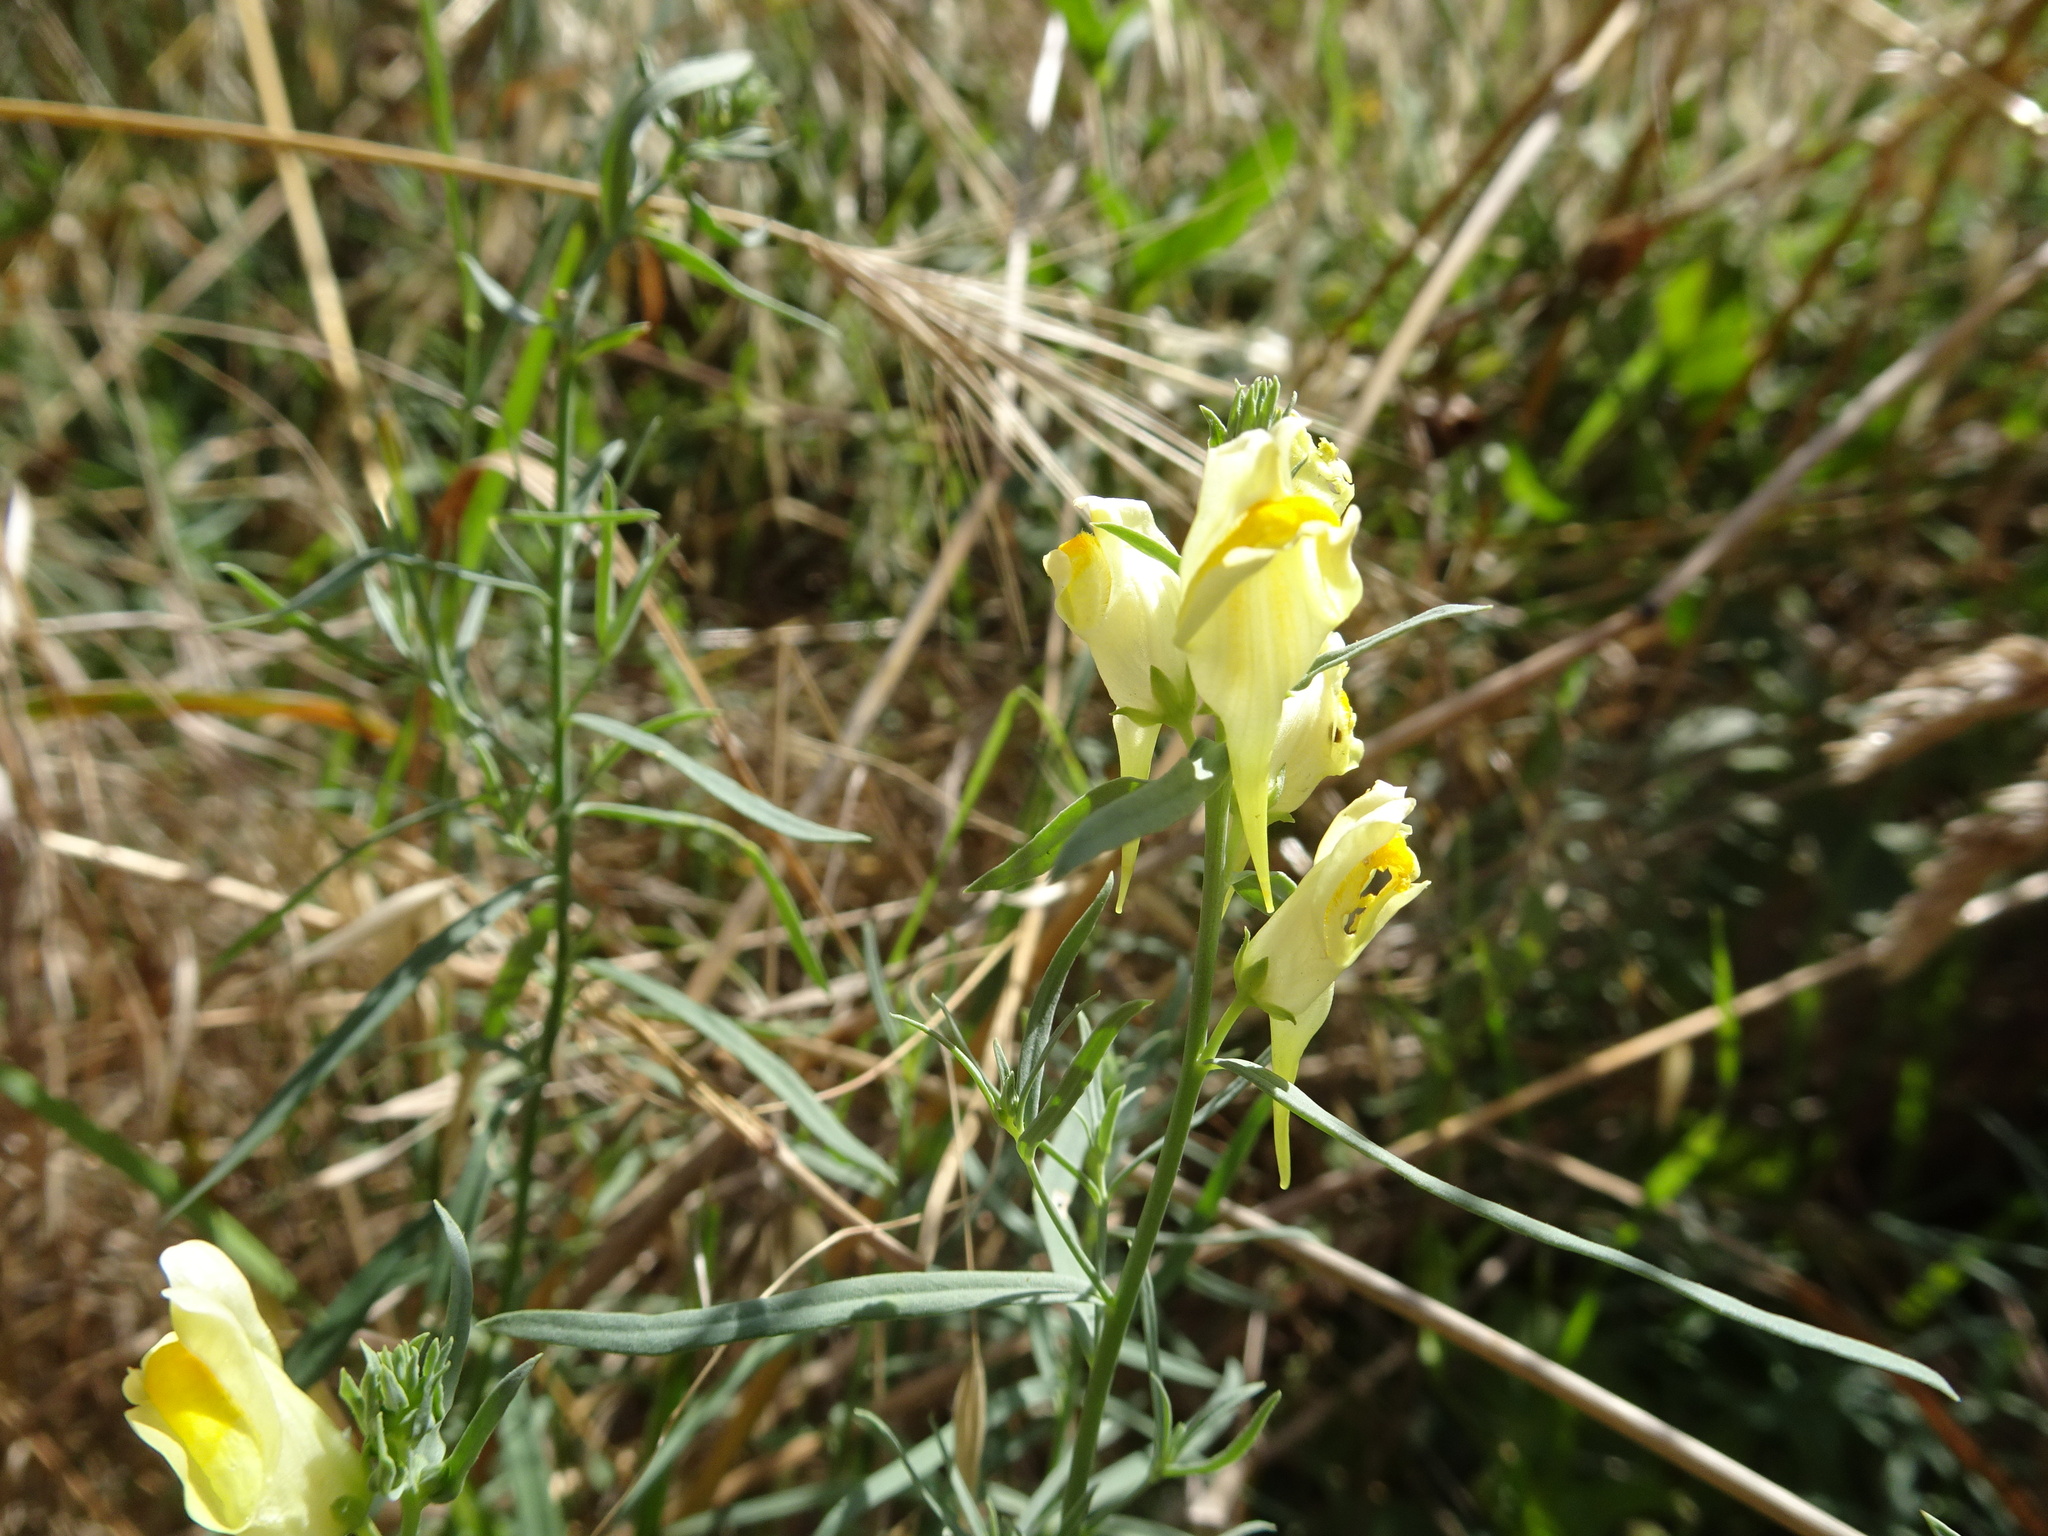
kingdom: Plantae
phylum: Tracheophyta
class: Magnoliopsida
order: Lamiales
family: Plantaginaceae
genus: Linaria
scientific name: Linaria vulgaris
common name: Butter and eggs
